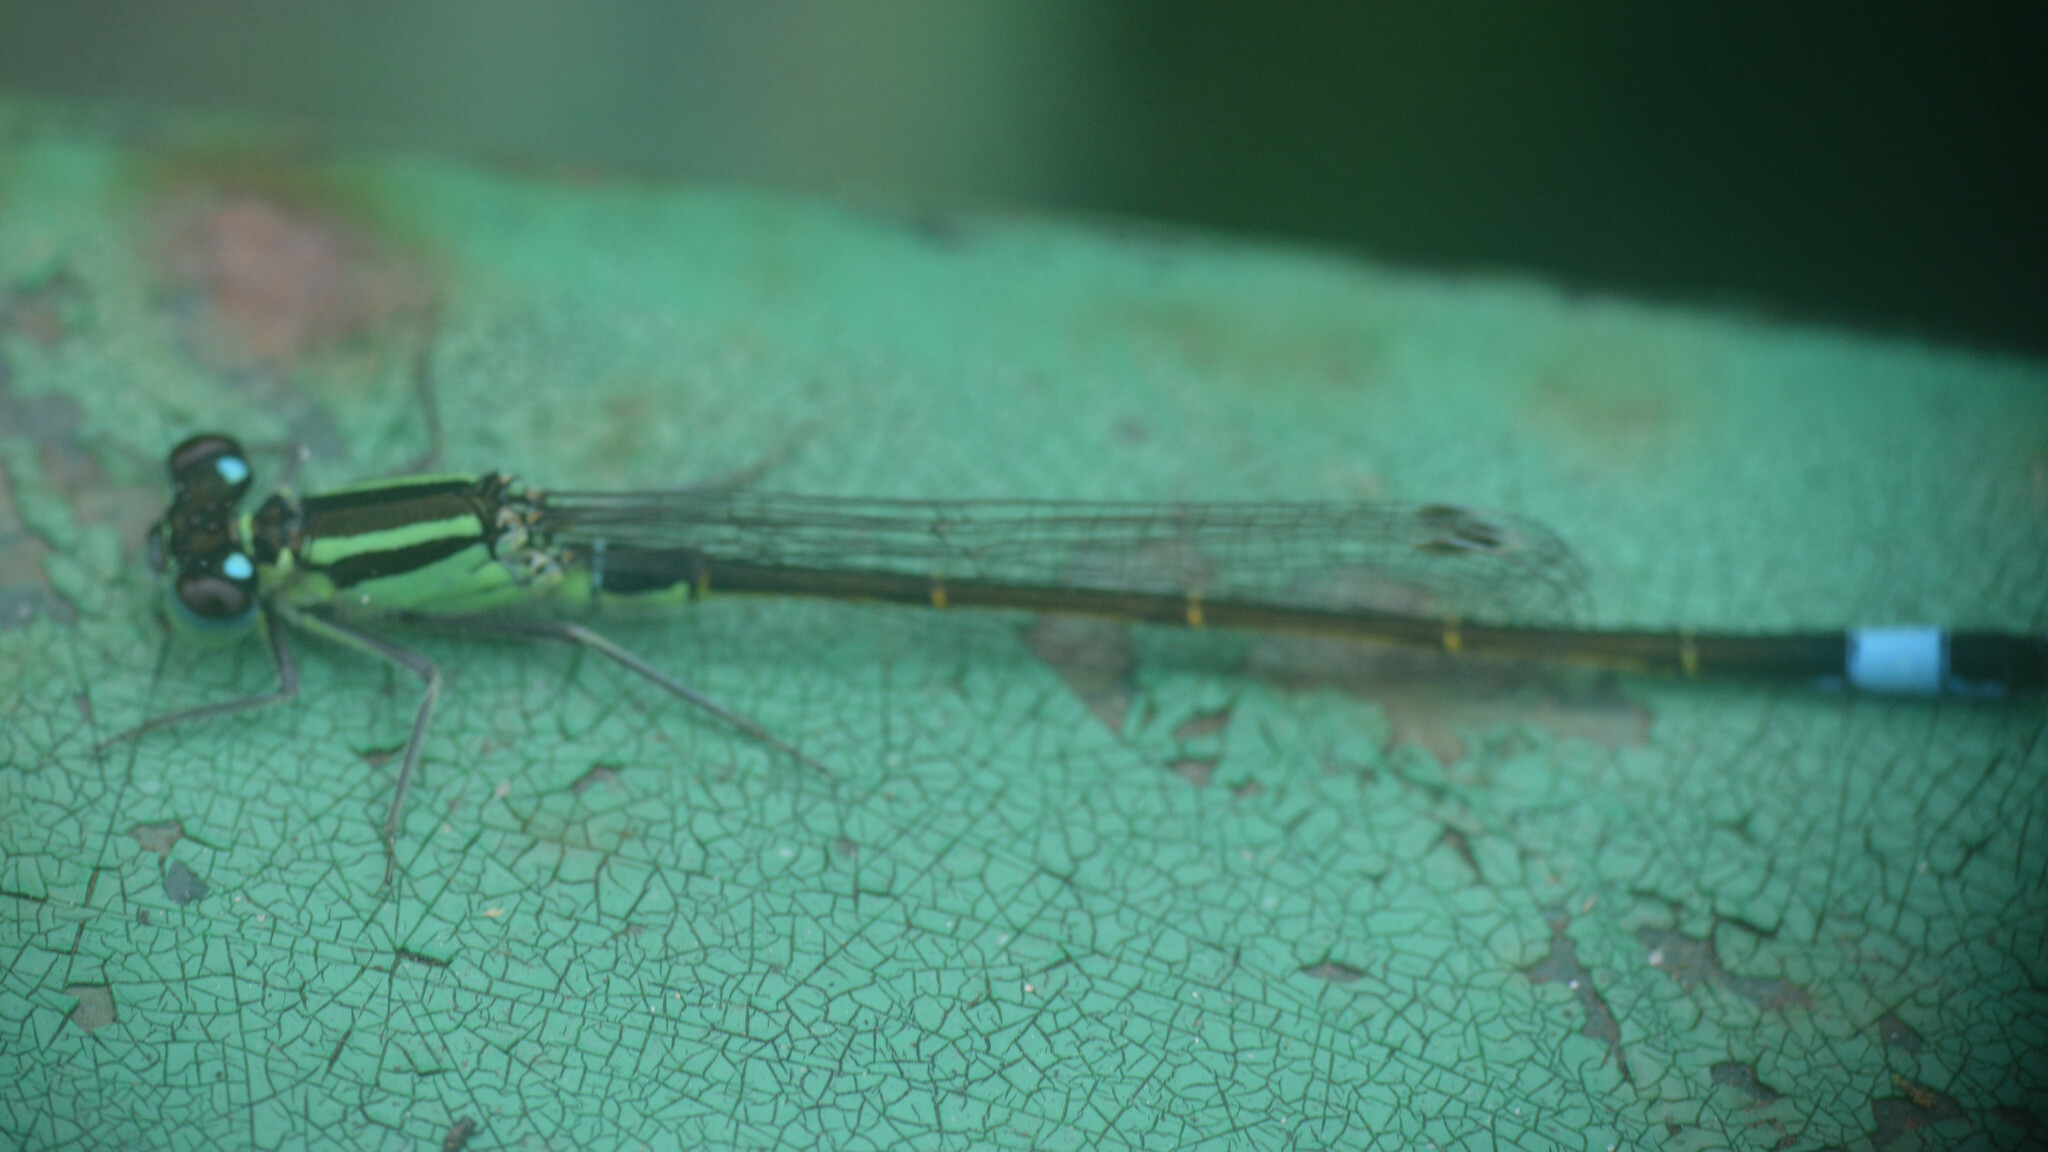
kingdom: Animalia
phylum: Arthropoda
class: Insecta
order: Odonata
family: Coenagrionidae
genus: Ischnura
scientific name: Ischnura elegans
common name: Blue-tailed damselfly
